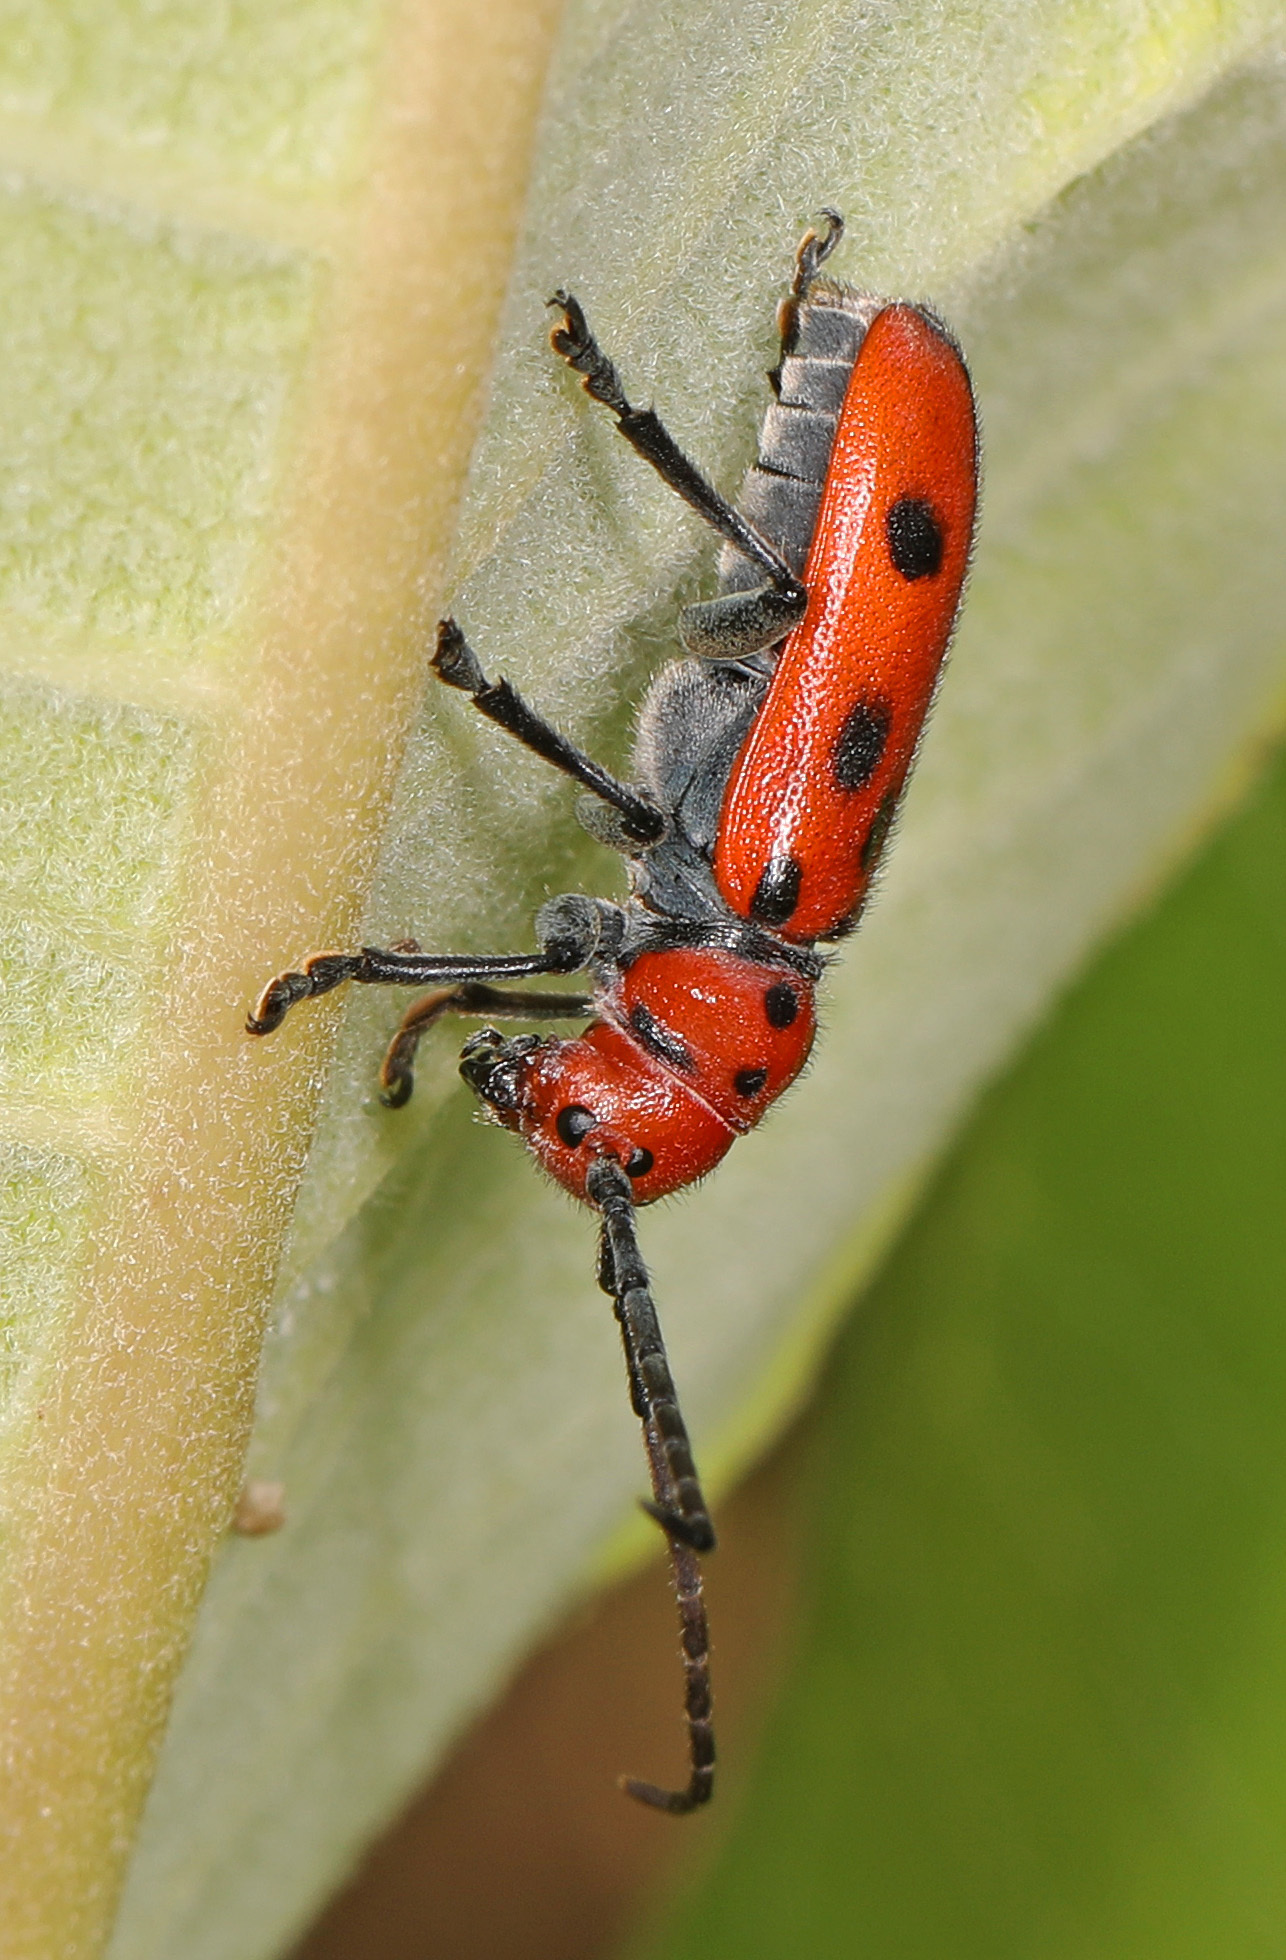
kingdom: Animalia
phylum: Arthropoda
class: Insecta
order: Coleoptera
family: Cerambycidae
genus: Tetraopes
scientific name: Tetraopes tetrophthalmus
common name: Red milkweed beetle
